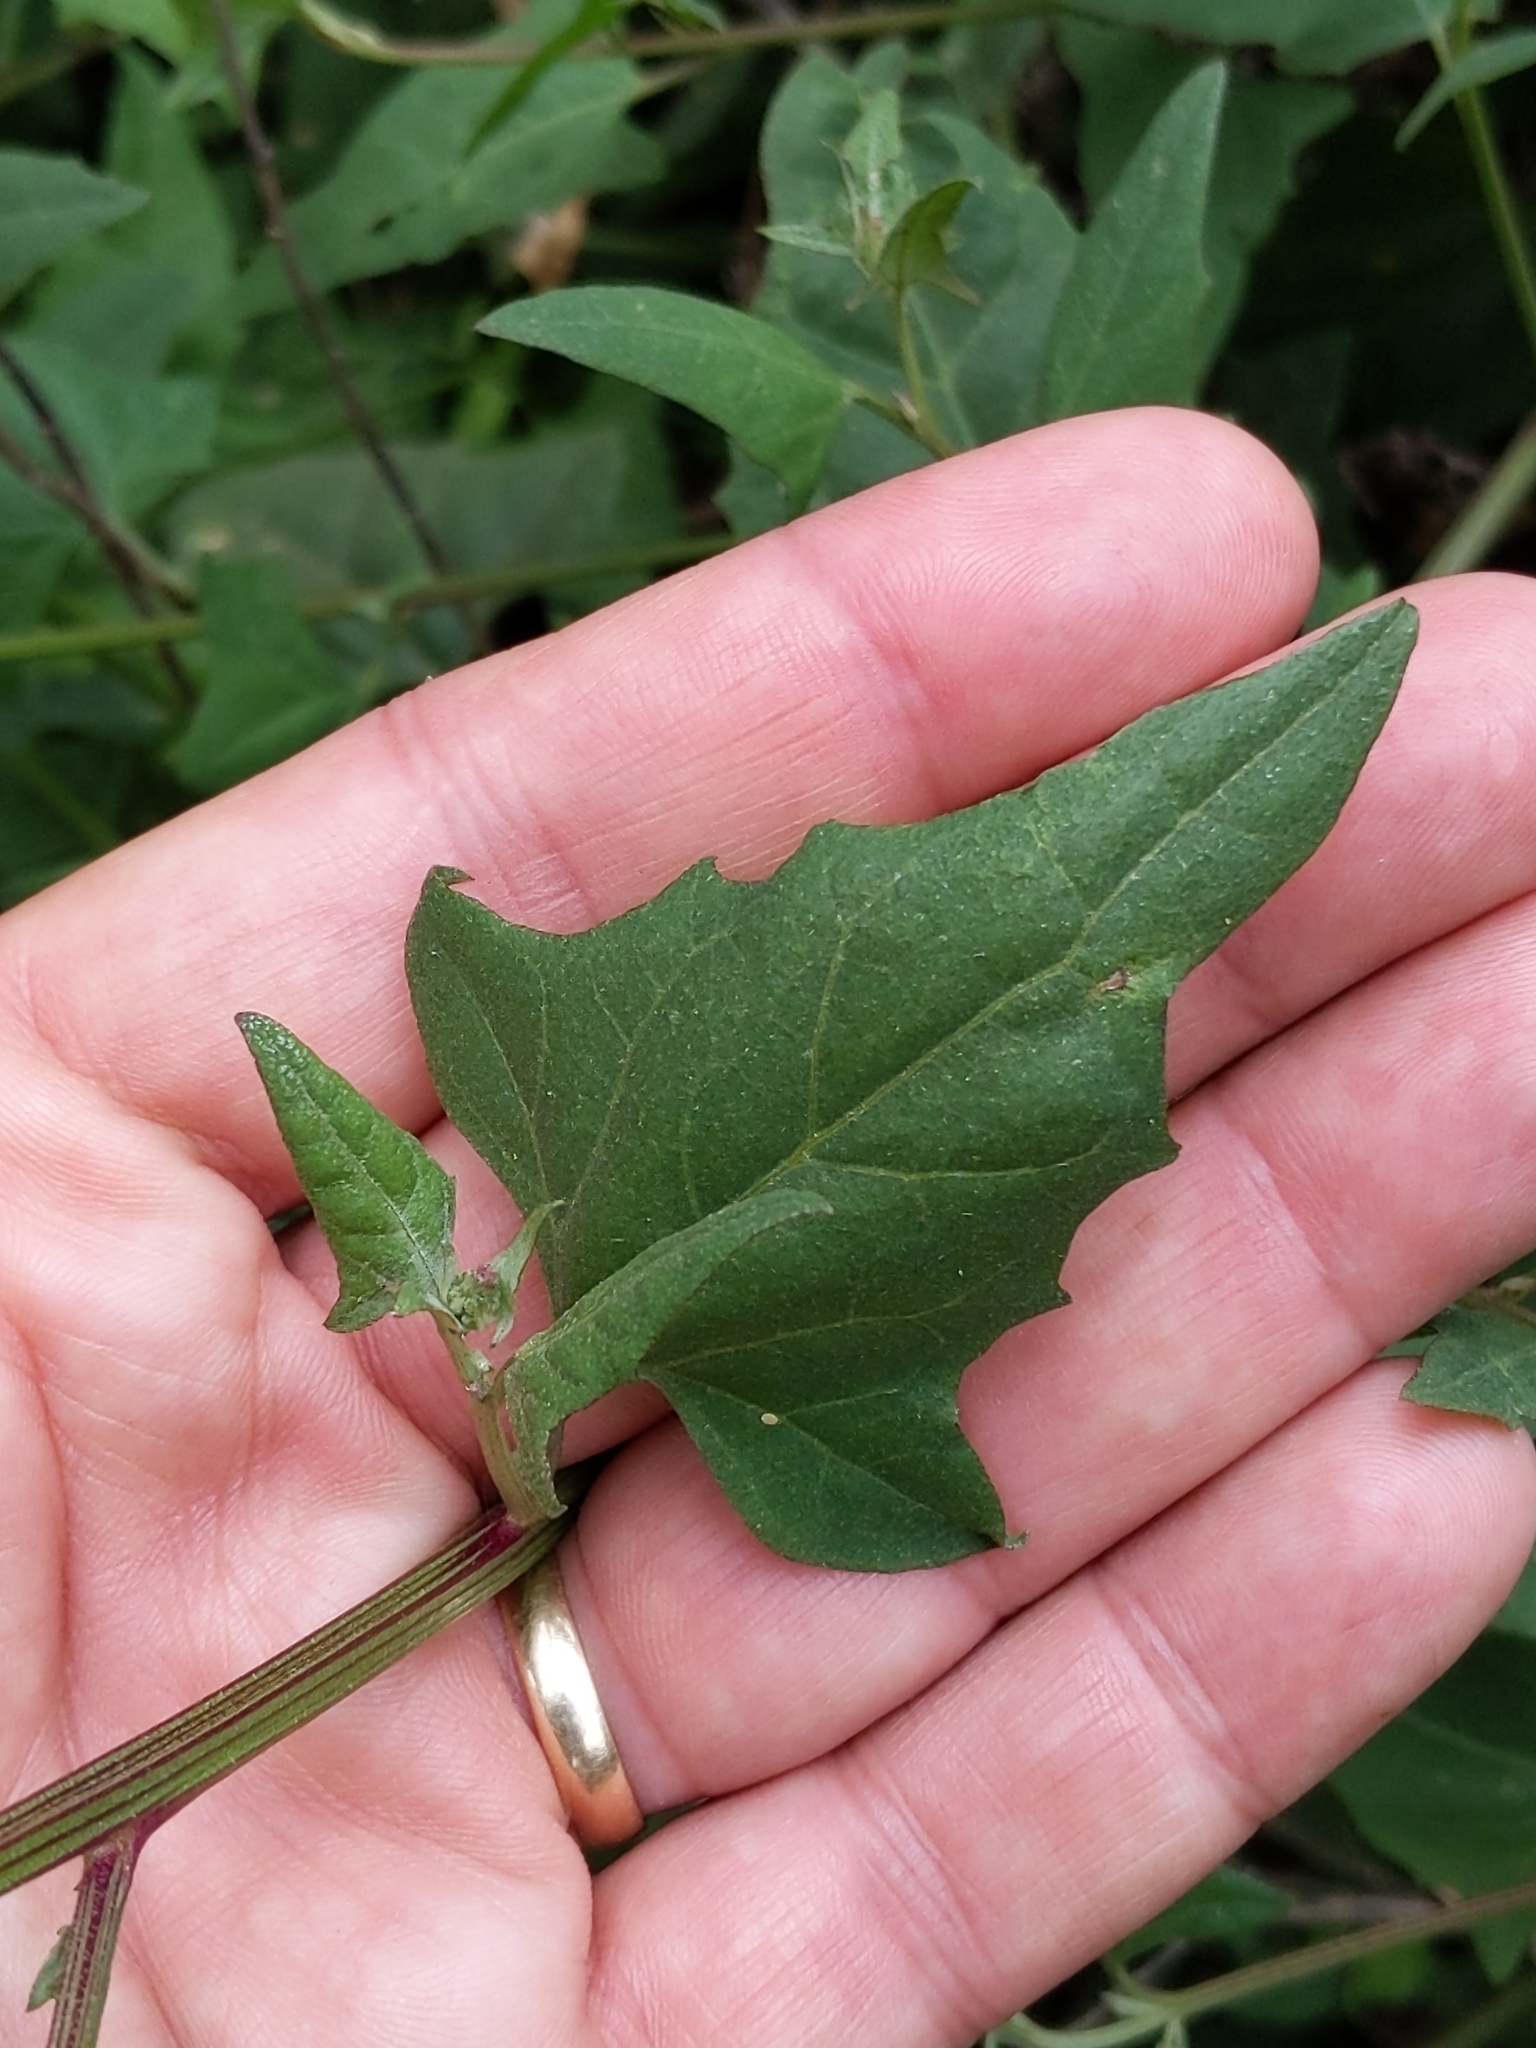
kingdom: Plantae
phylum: Tracheophyta
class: Magnoliopsida
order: Caryophyllales
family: Amaranthaceae
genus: Atriplex
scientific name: Atriplex prostrata
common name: Spear-leaved orache
